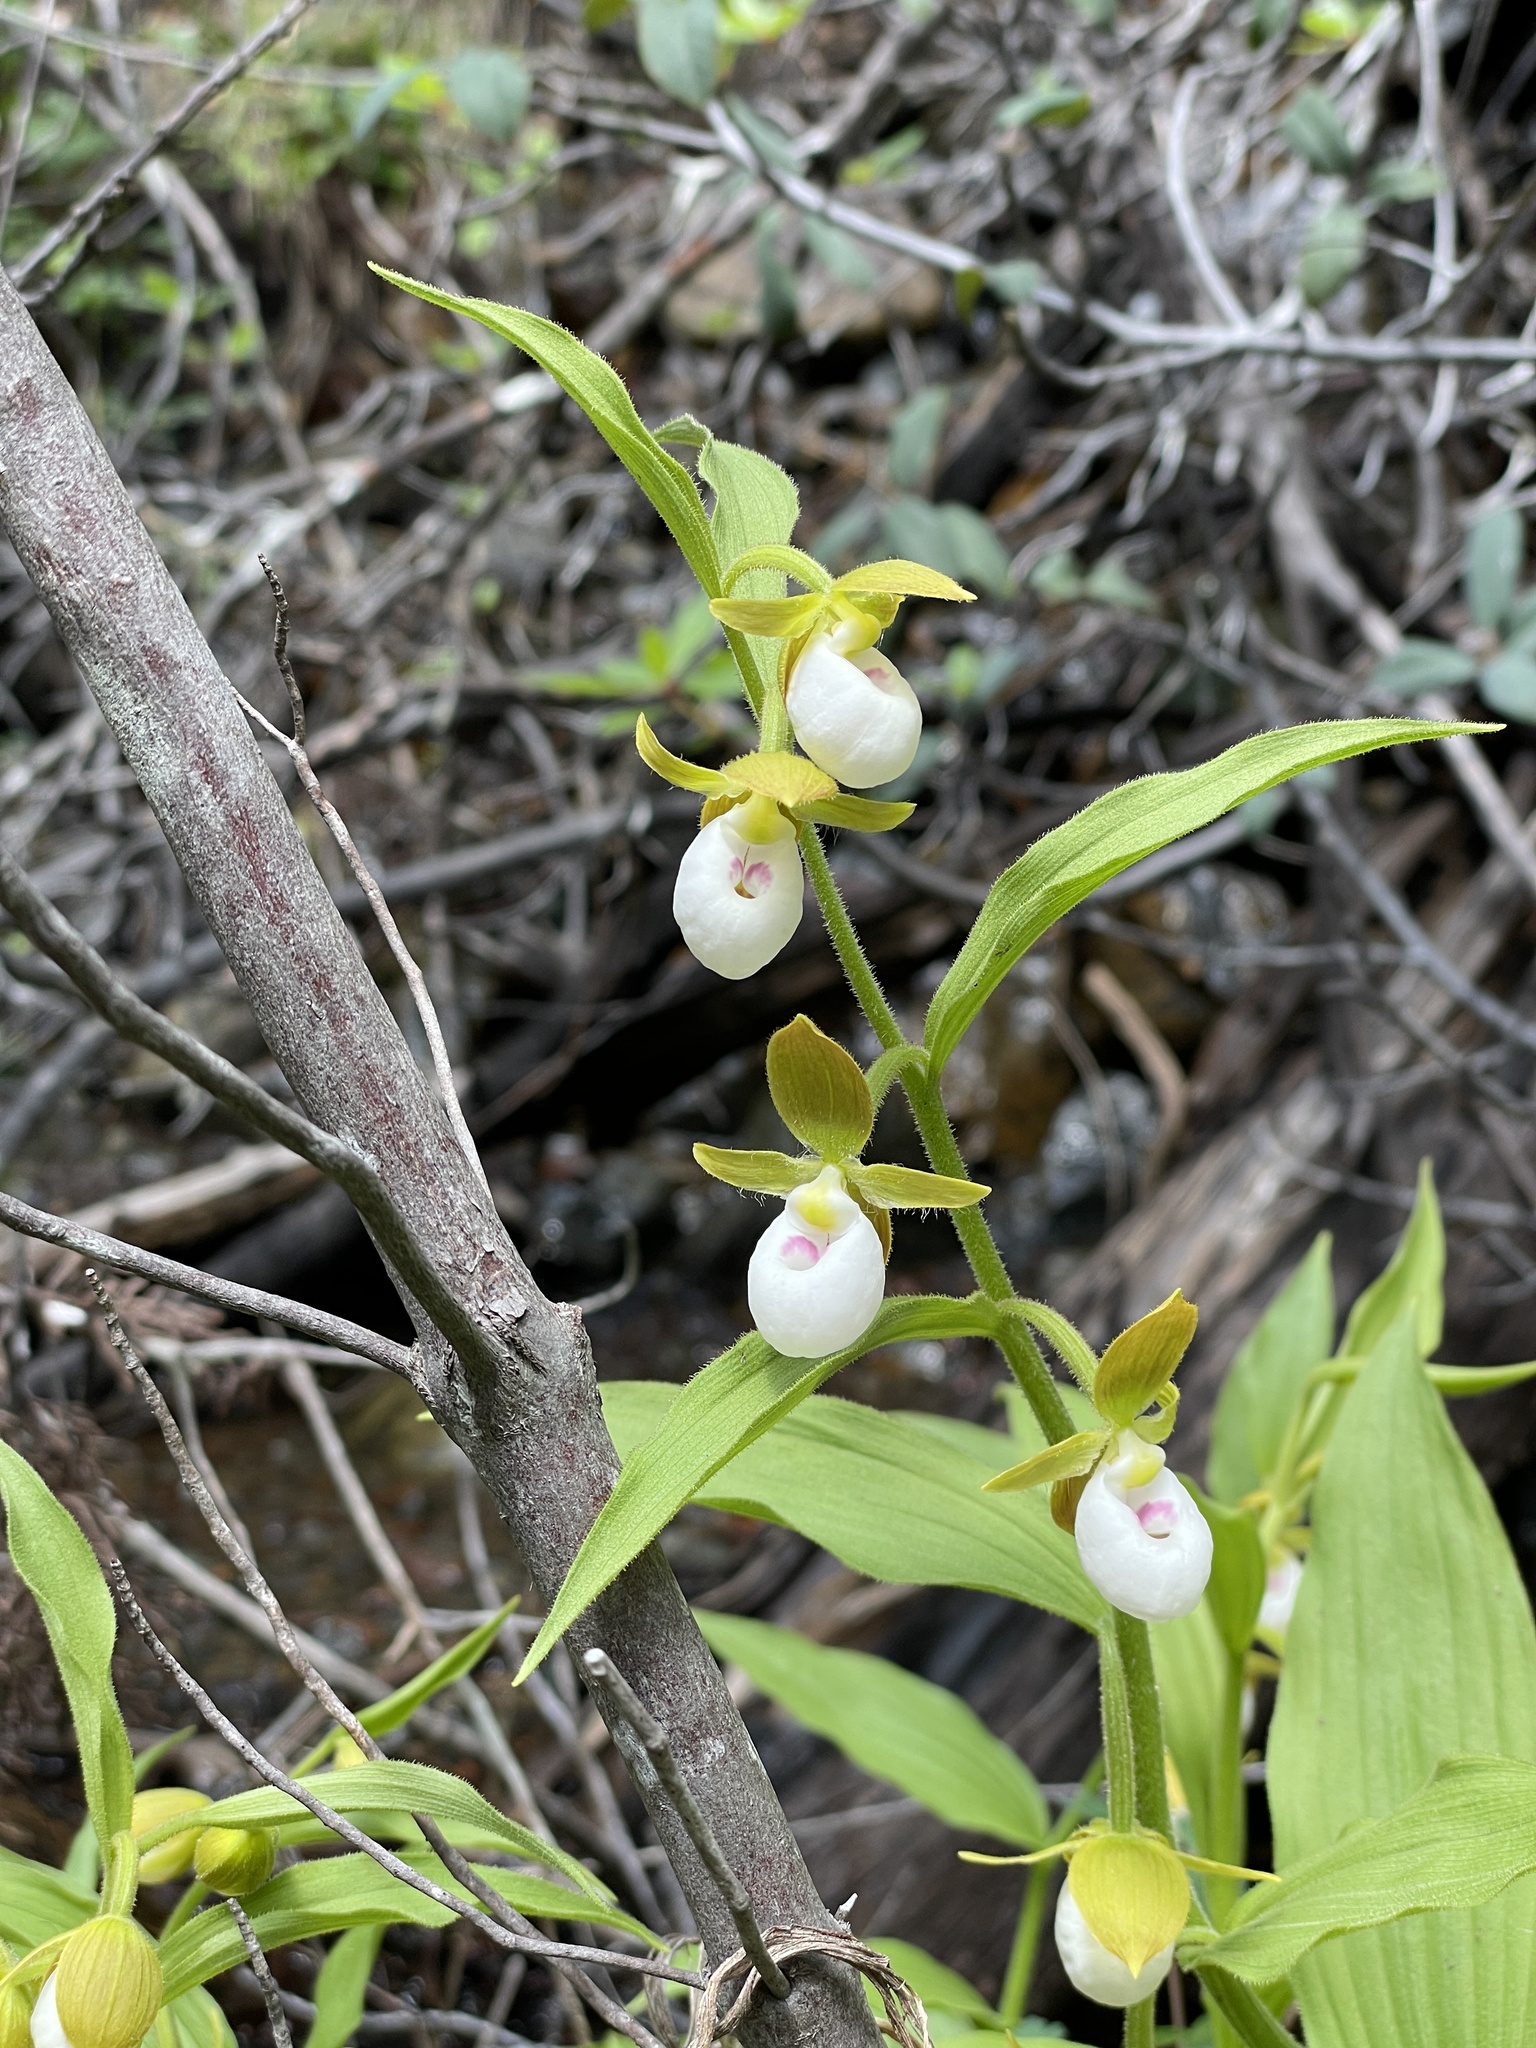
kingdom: Plantae
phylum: Tracheophyta
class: Liliopsida
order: Asparagales
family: Orchidaceae
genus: Cypripedium
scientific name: Cypripedium californicum
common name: California lady's slipper
